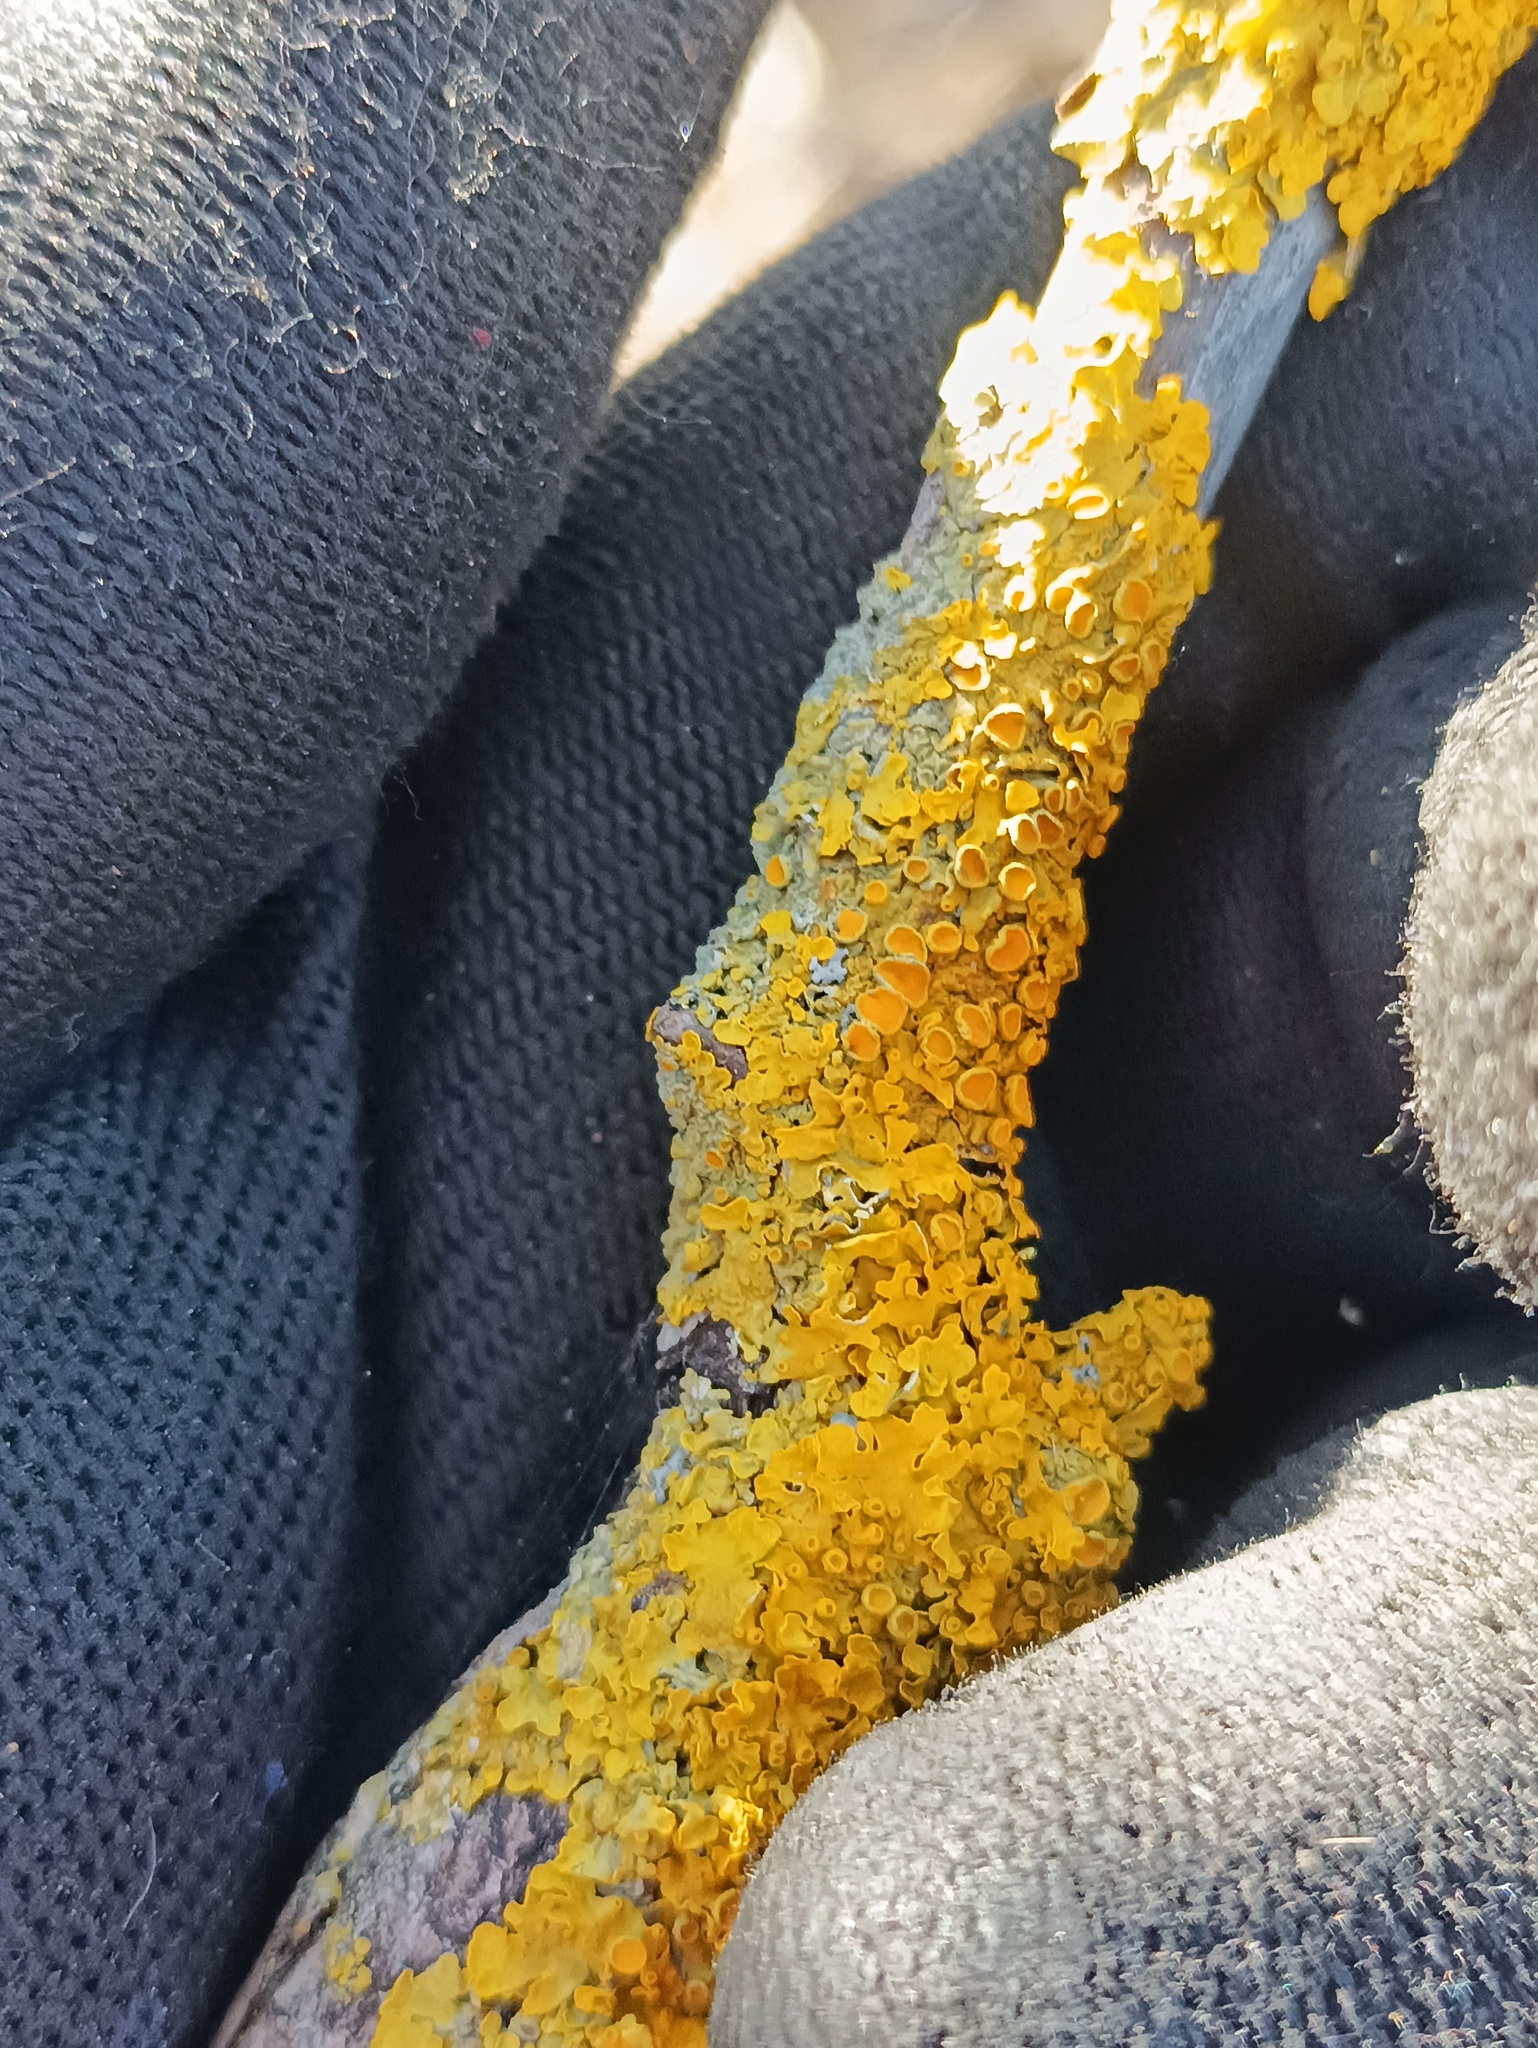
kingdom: Fungi
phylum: Ascomycota
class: Lecanoromycetes
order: Teloschistales
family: Teloschistaceae
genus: Xanthoria
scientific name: Xanthoria parietina
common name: Common orange lichen
